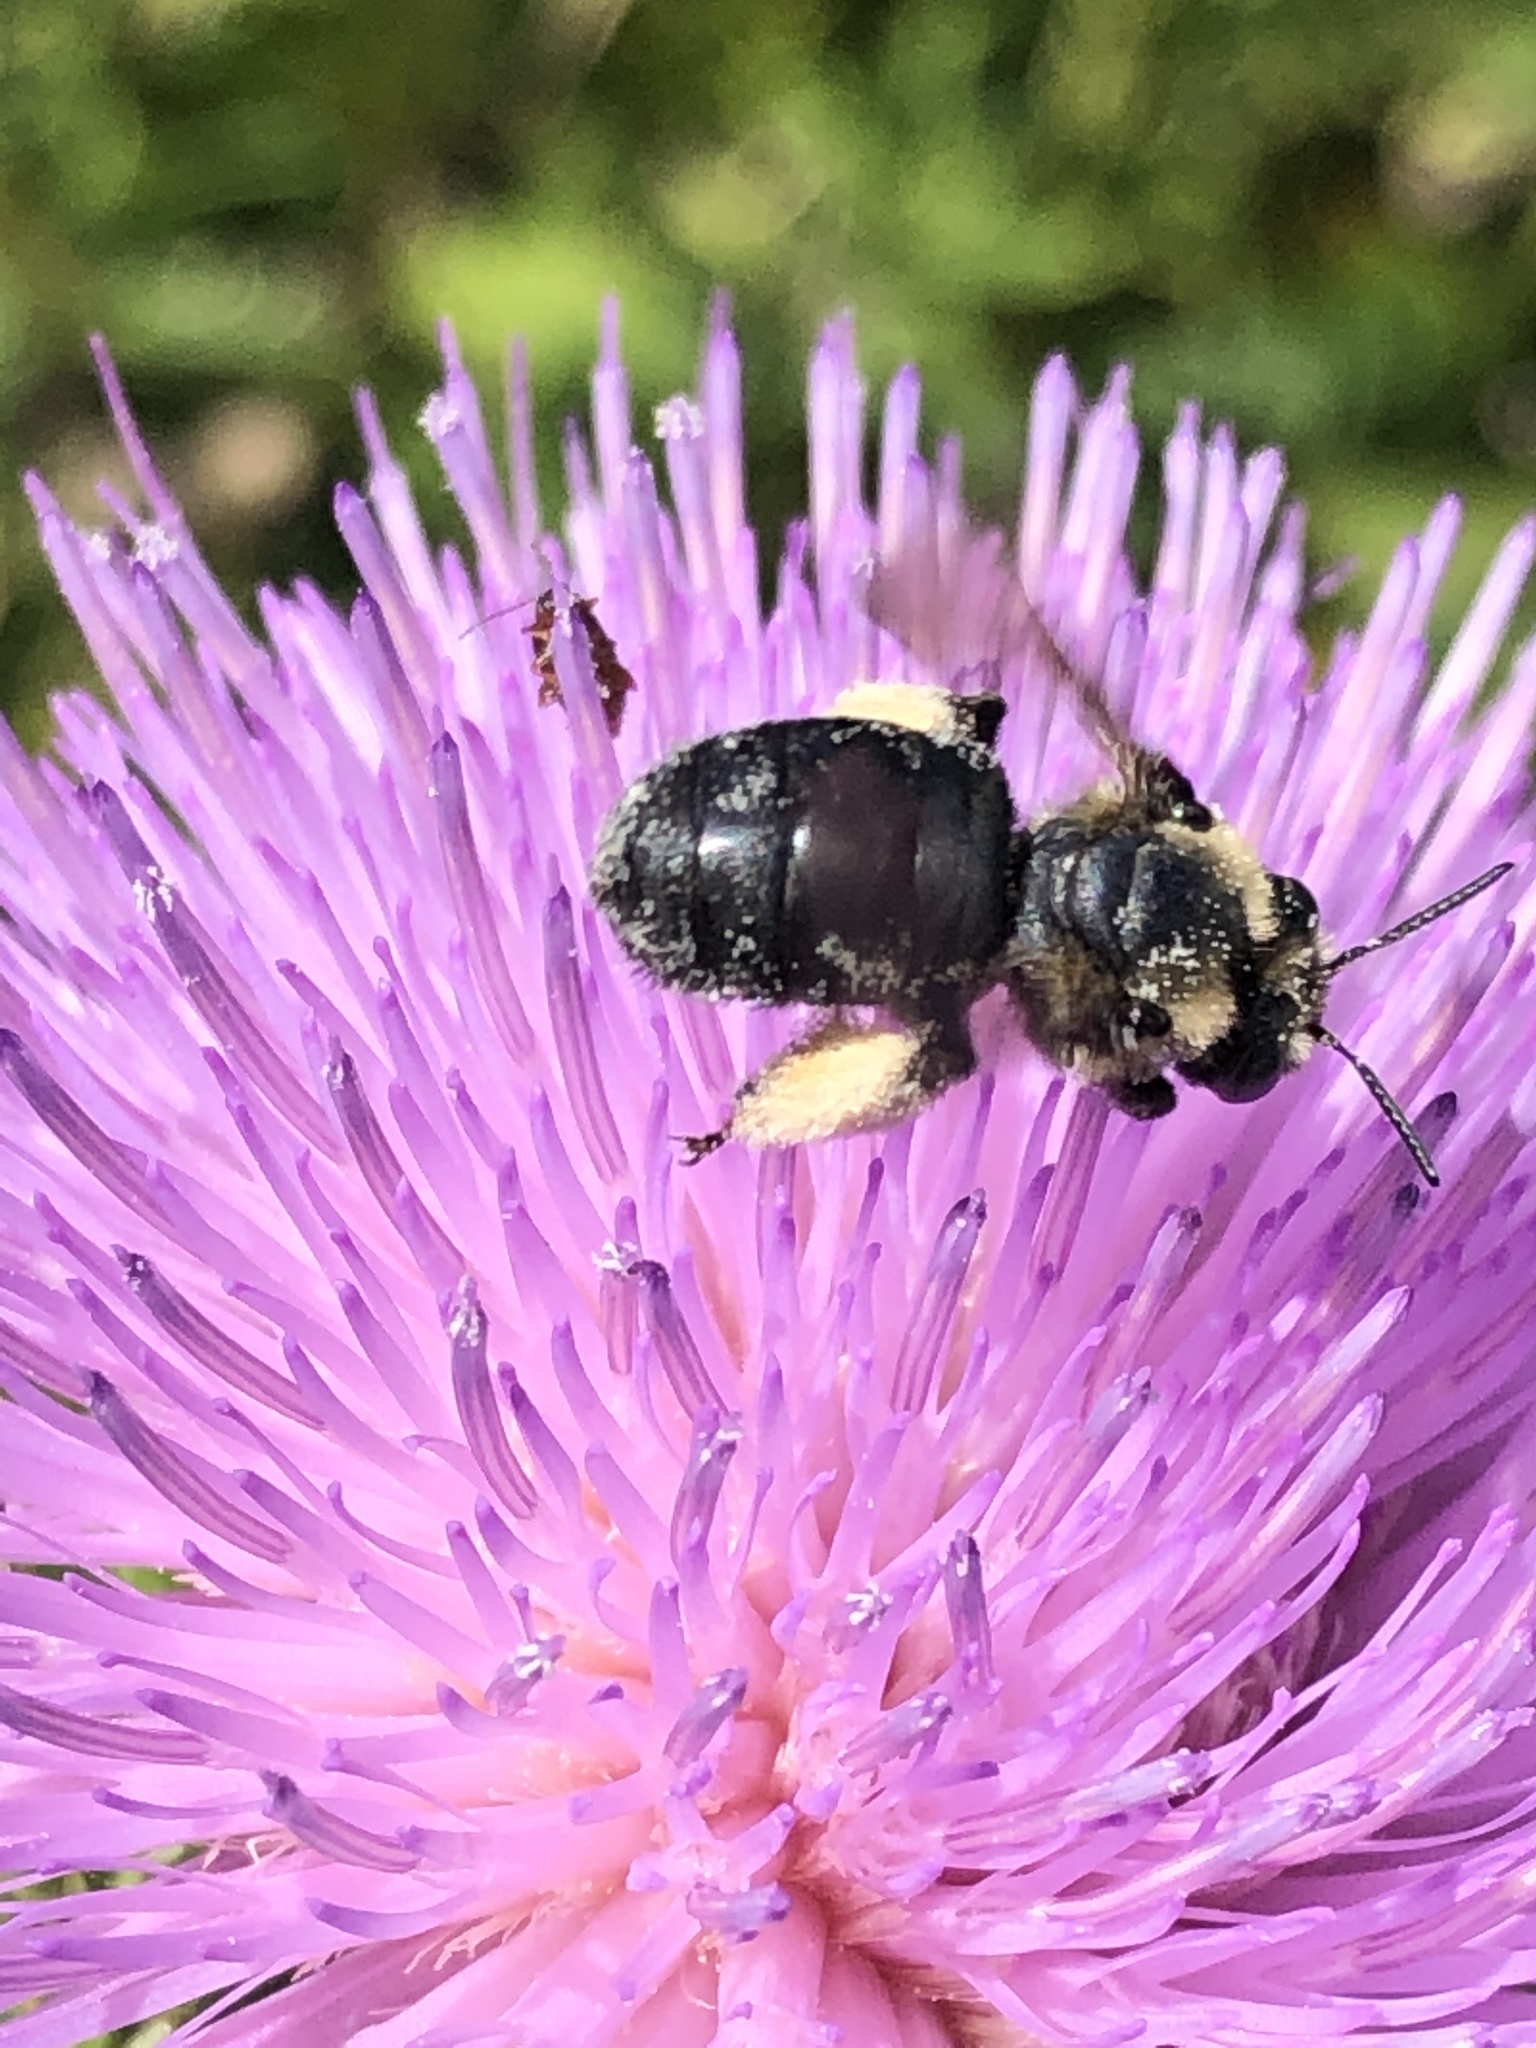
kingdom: Animalia
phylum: Arthropoda
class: Insecta
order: Hymenoptera
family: Apidae
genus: Melissodes
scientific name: Melissodes desponsus
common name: Thistle long-horned bee
